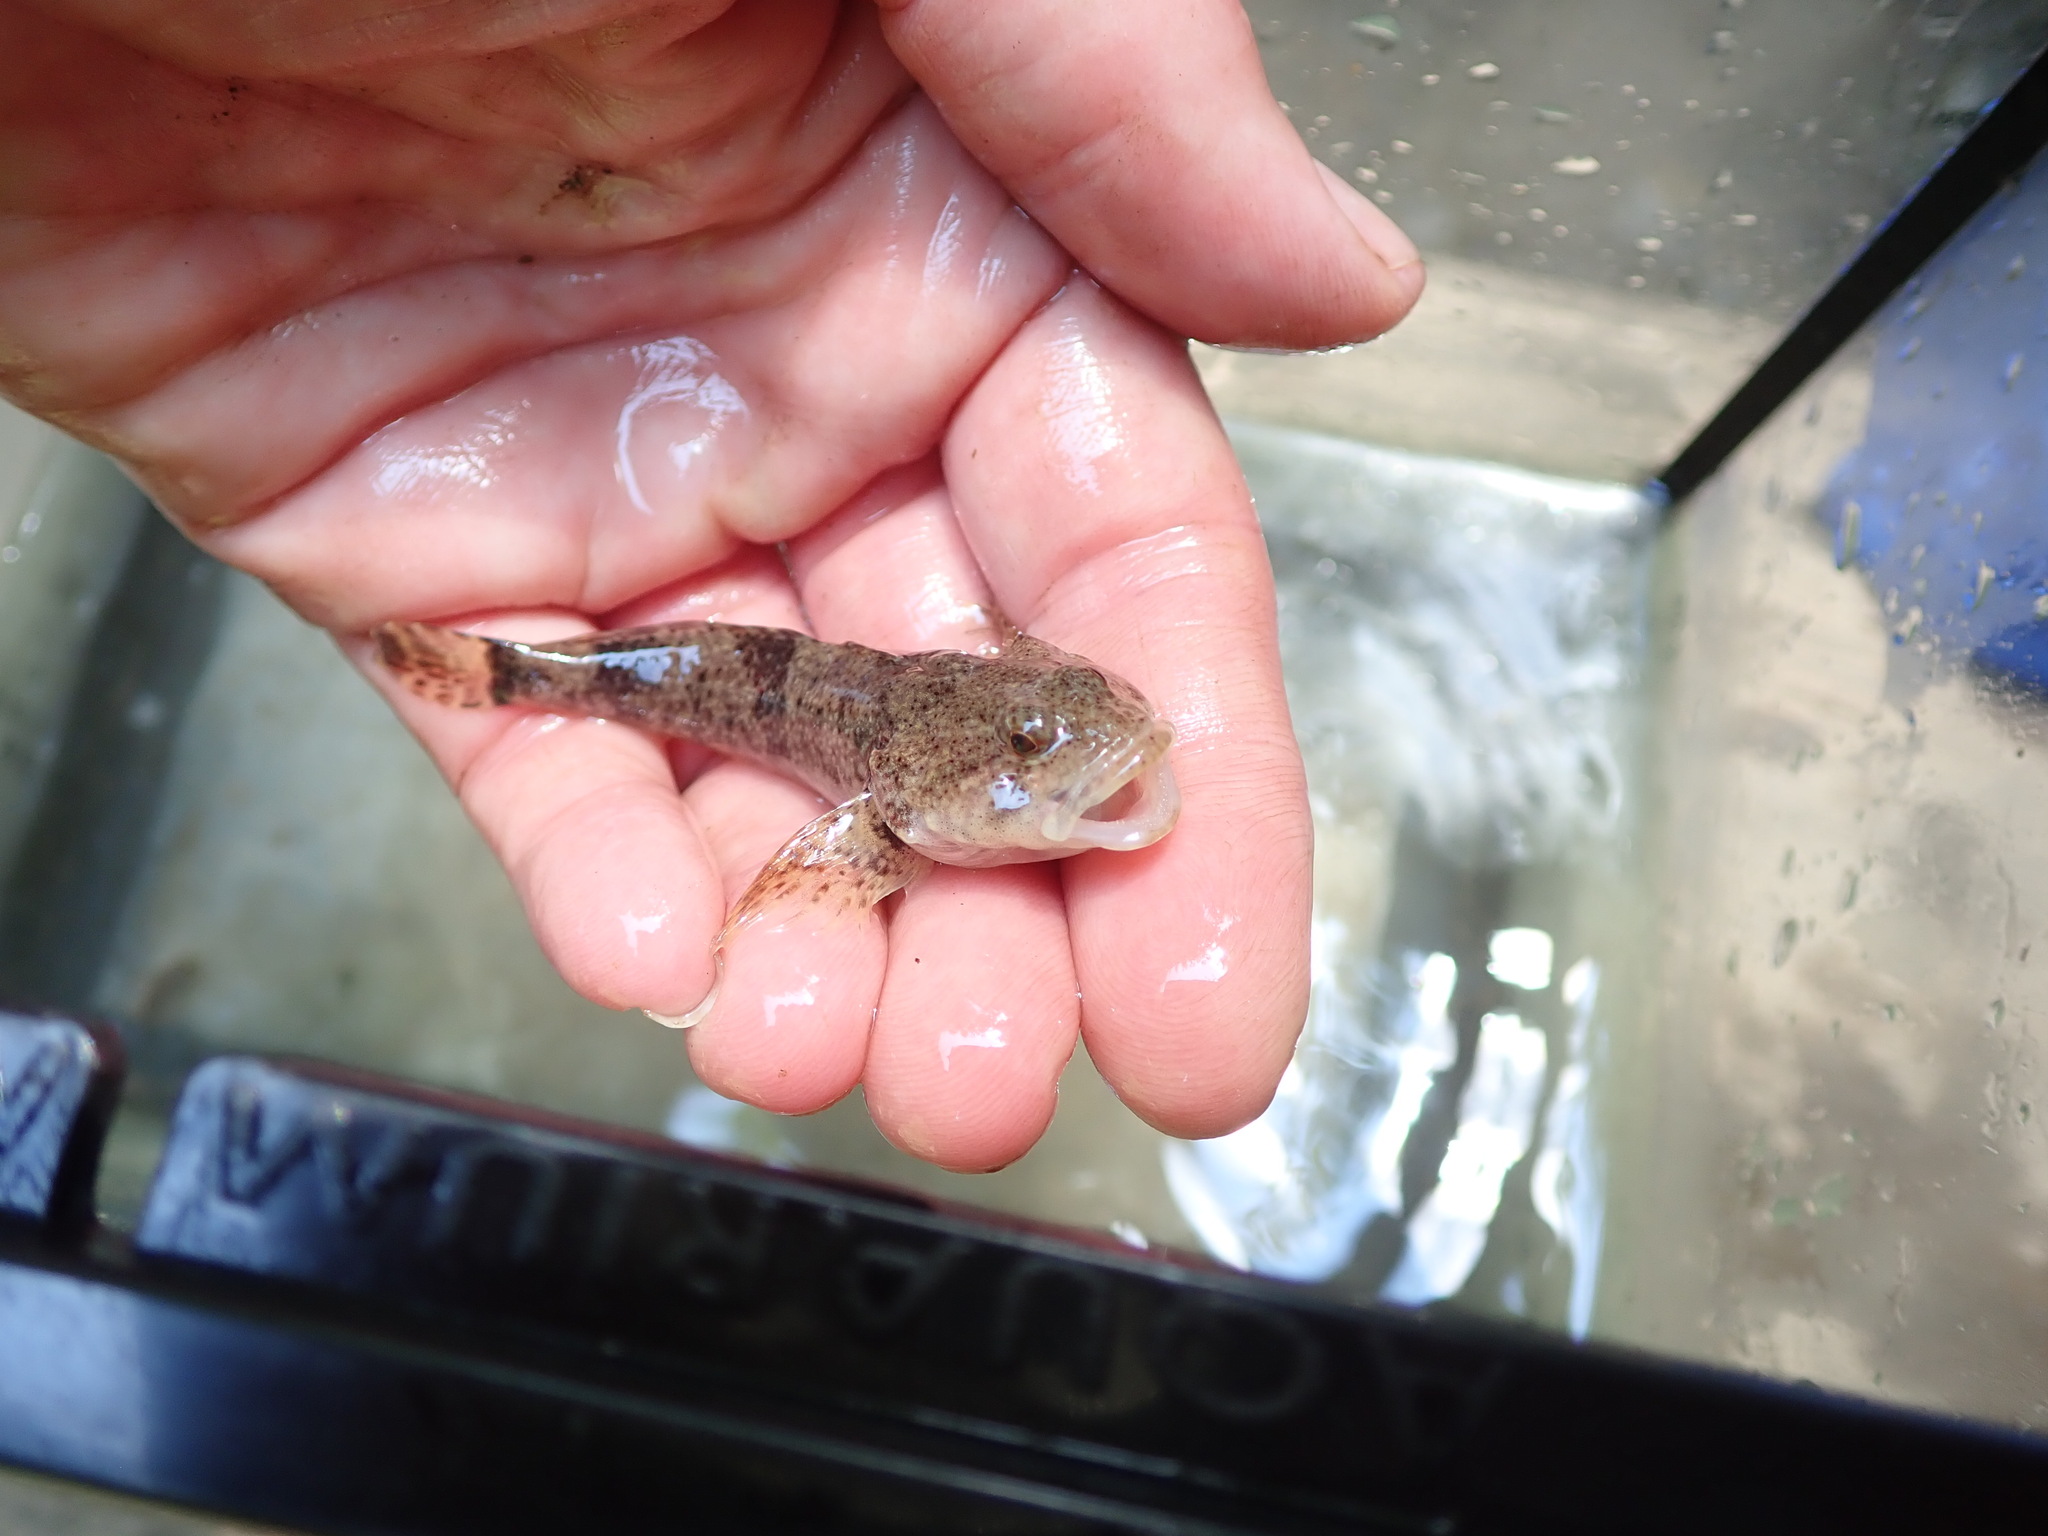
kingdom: Animalia
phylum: Chordata
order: Scorpaeniformes
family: Cottidae
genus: Cottus
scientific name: Cottus bairdii
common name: Mottled sculpin
